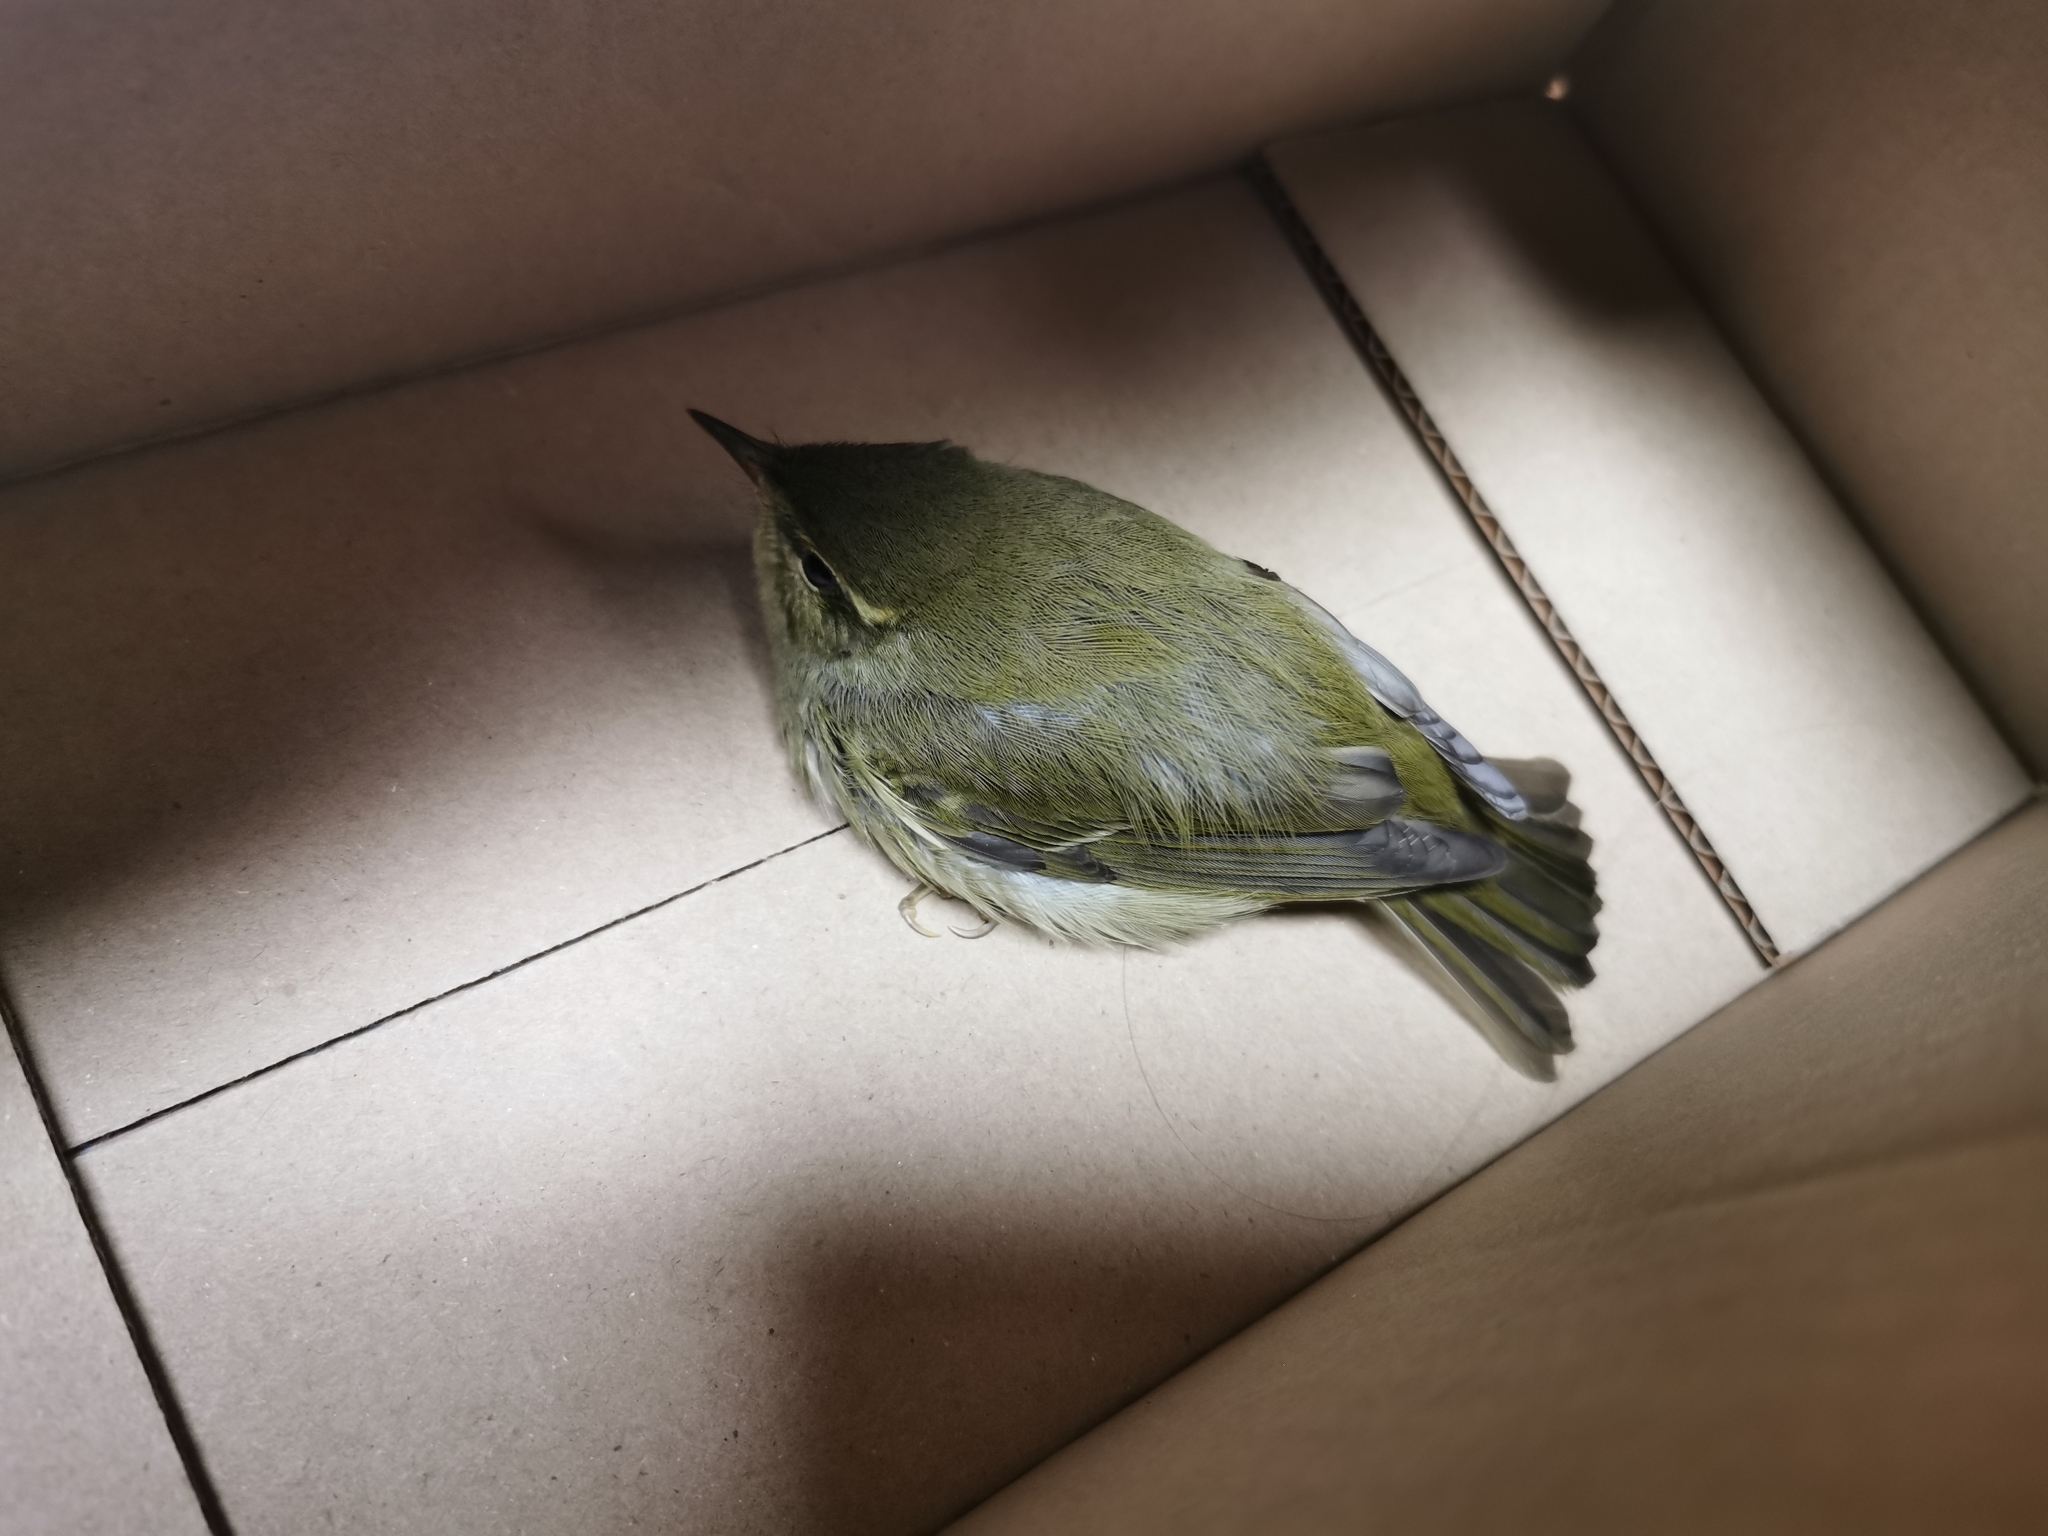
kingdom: Animalia
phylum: Chordata
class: Aves
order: Passeriformes
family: Phylloscopidae
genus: Phylloscopus
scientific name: Phylloscopus examinandus
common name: Kamchatka leaf warbler
